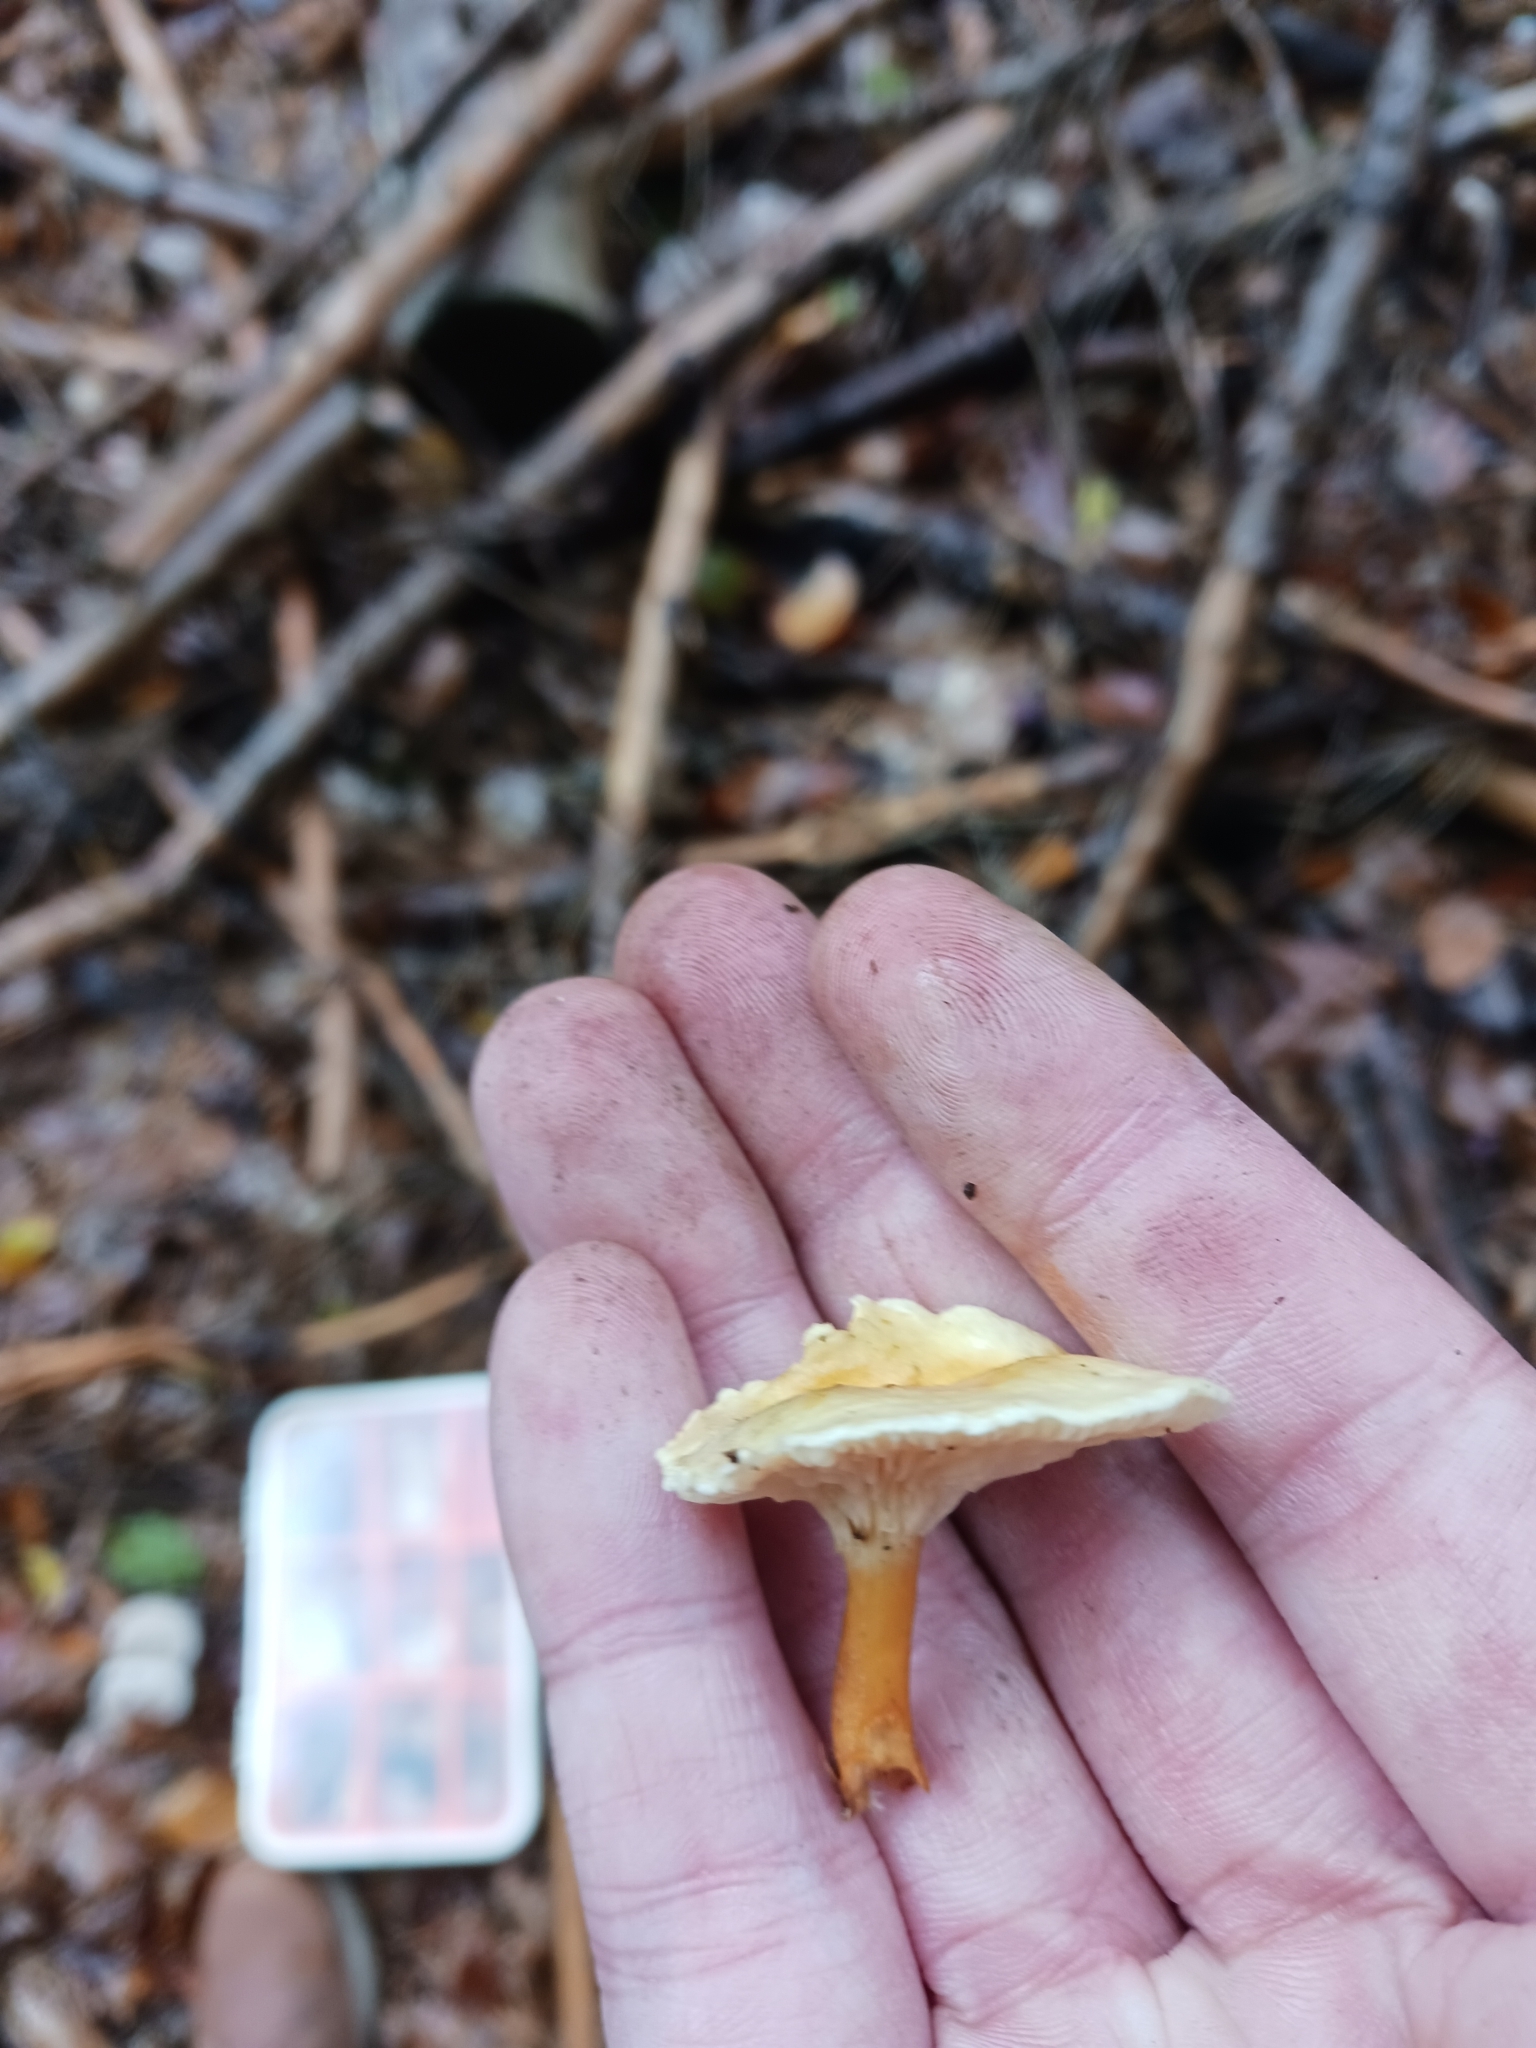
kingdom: Fungi
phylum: Basidiomycota
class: Agaricomycetes
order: Boletales
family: Hygrophoropsidaceae
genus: Hygrophoropsis
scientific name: Hygrophoropsis aurantiaca
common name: False chanterelle
